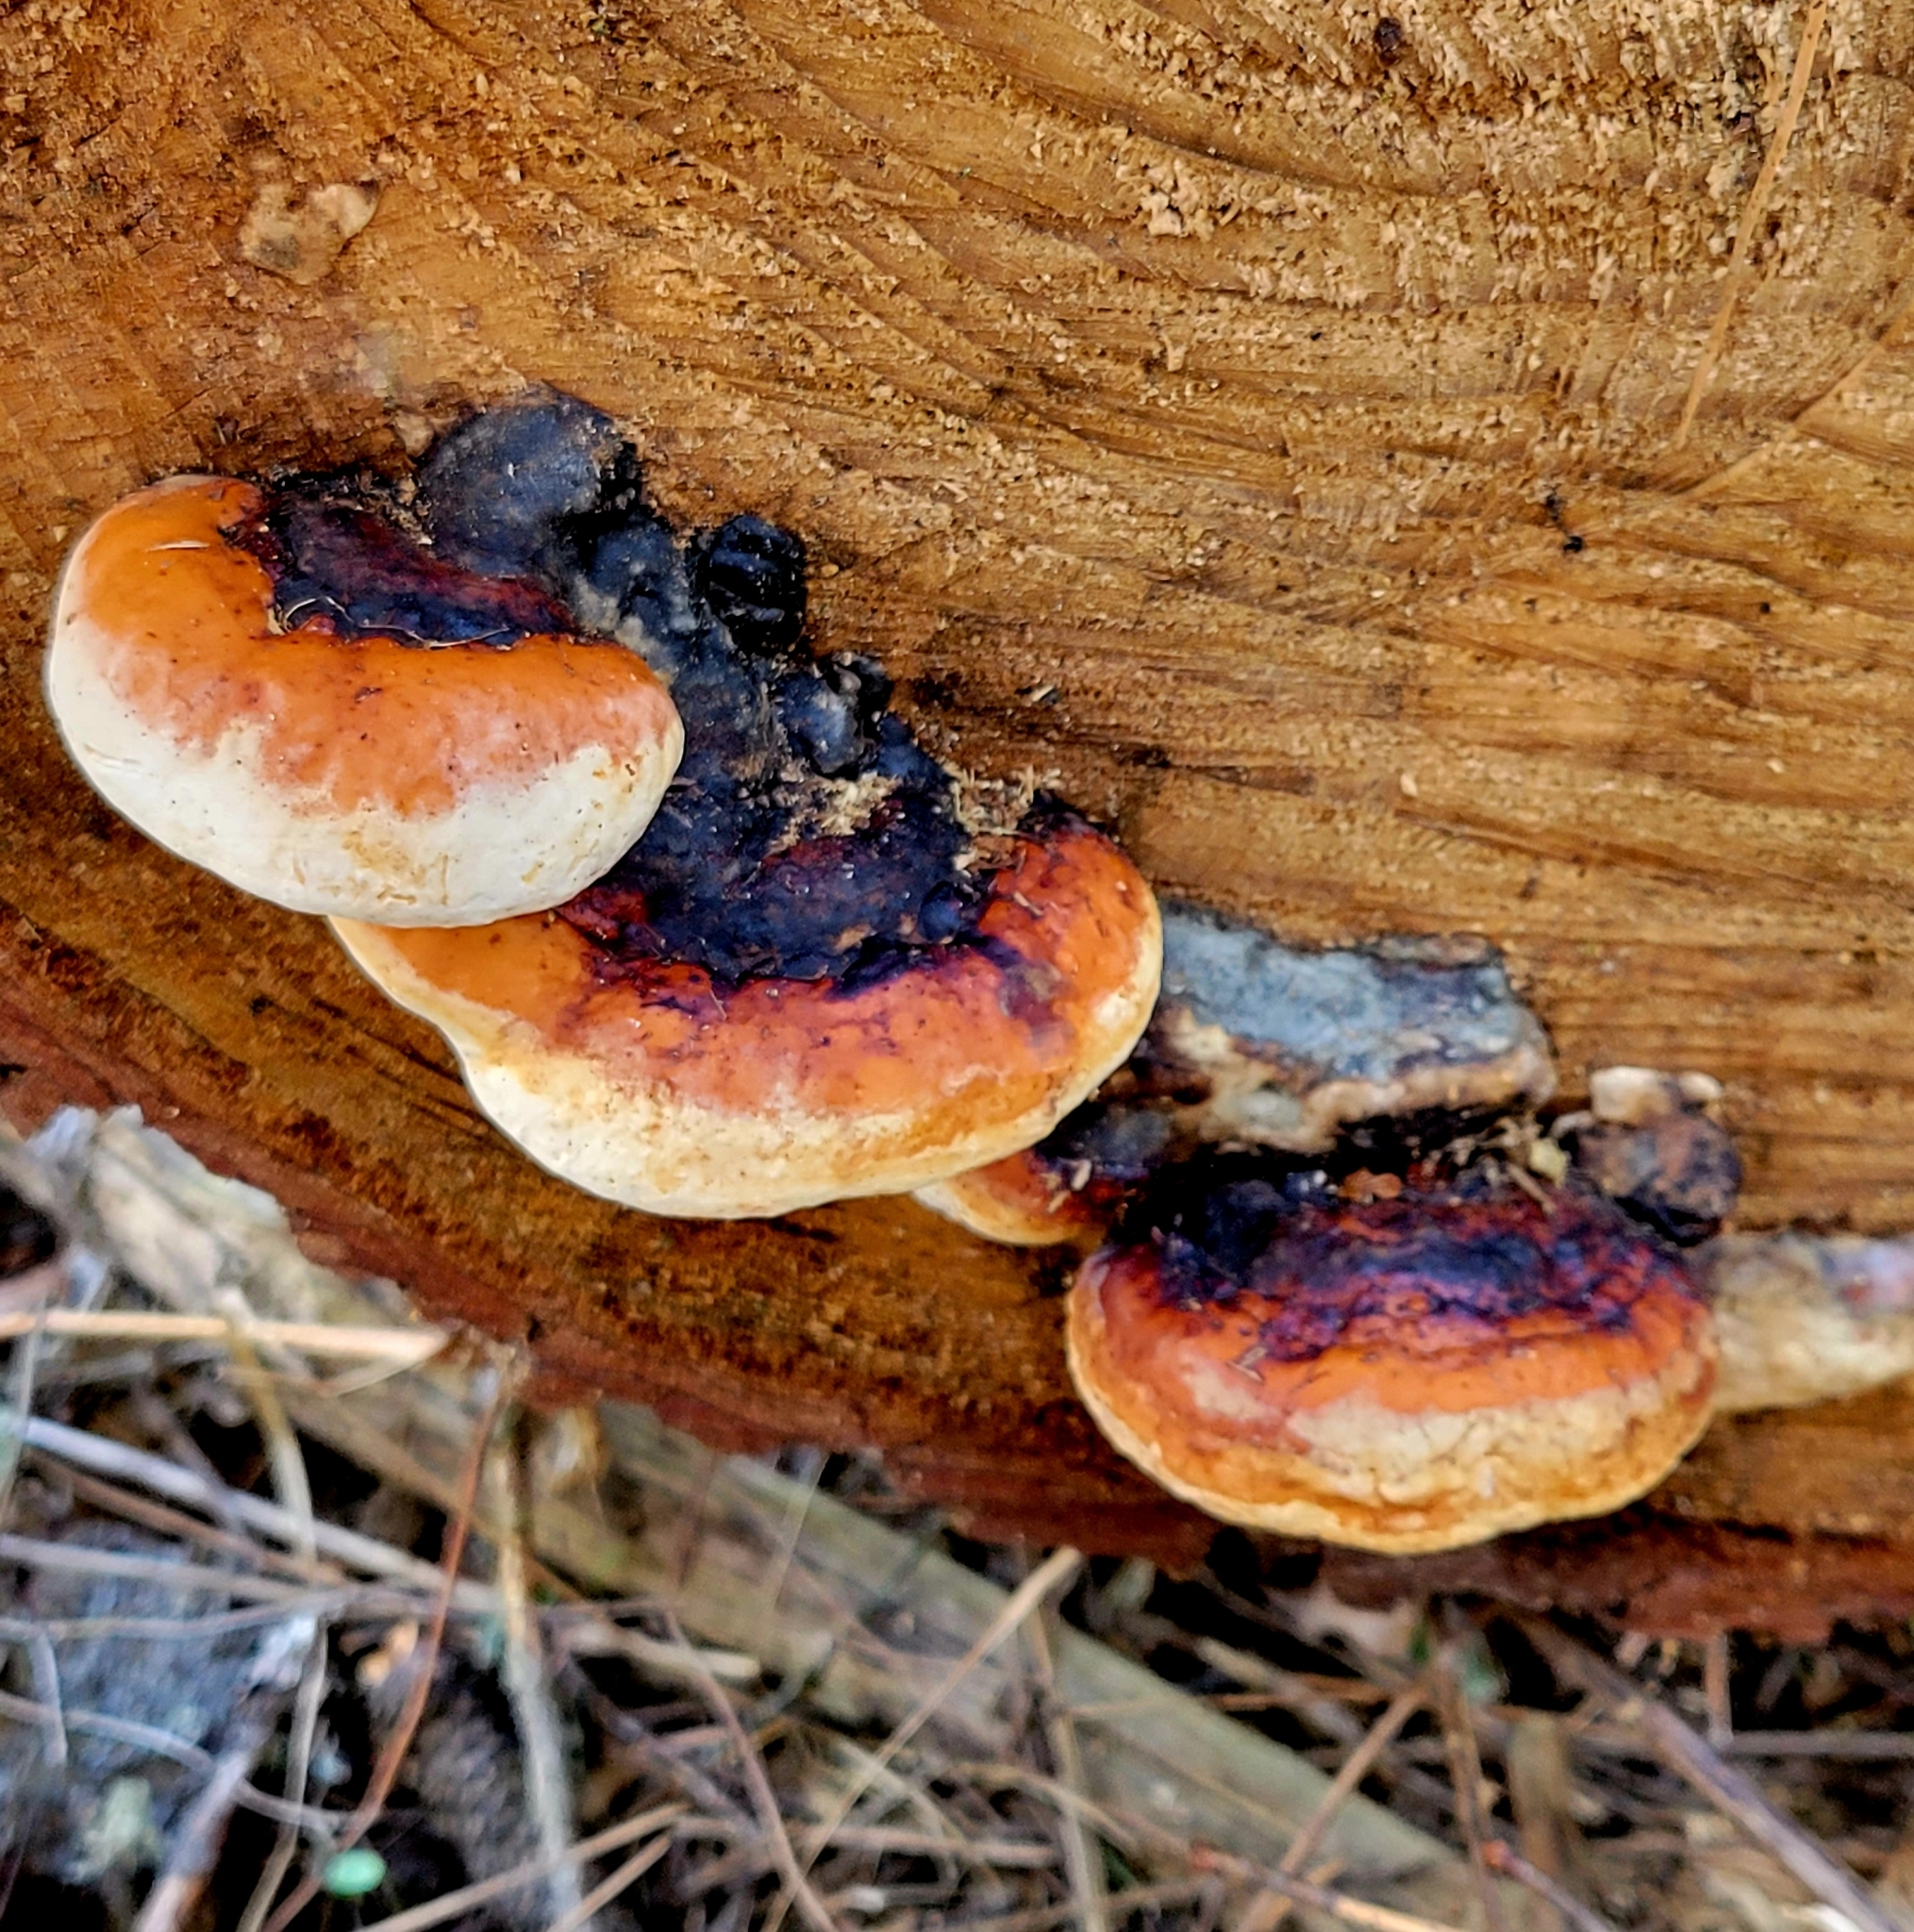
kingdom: Fungi
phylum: Basidiomycota
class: Agaricomycetes
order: Polyporales
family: Fomitopsidaceae
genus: Fomitopsis
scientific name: Fomitopsis mounceae
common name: Northern red belt
